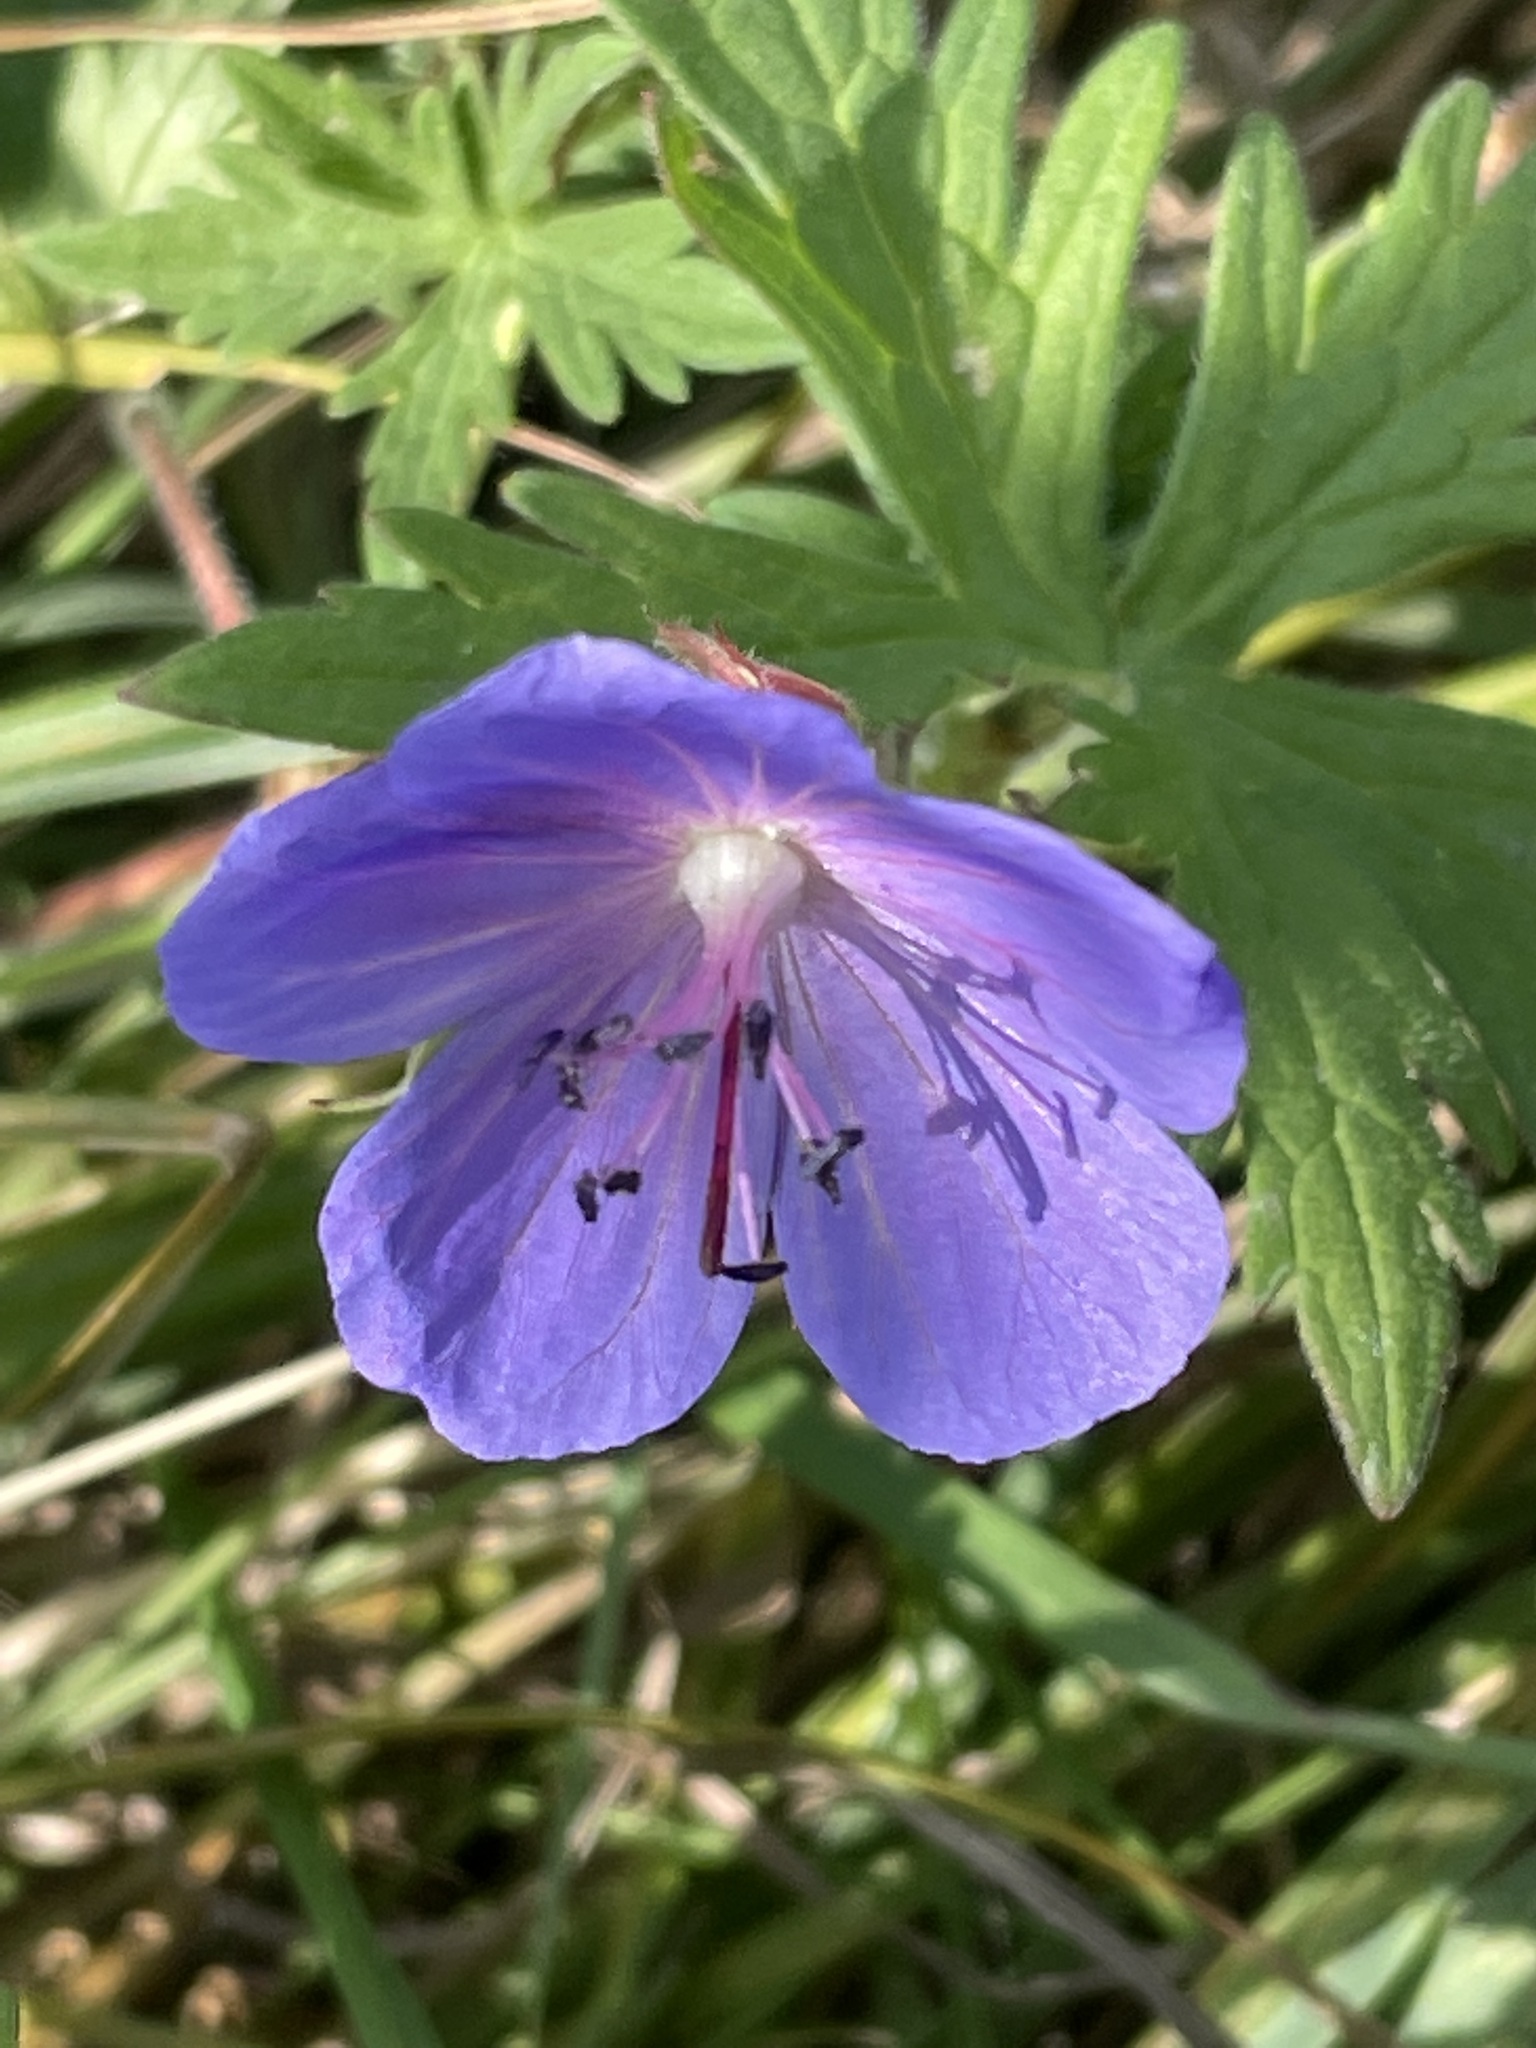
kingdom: Plantae
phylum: Tracheophyta
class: Magnoliopsida
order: Geraniales
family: Geraniaceae
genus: Geranium
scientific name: Geranium pratense
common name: Meadow crane's-bill
